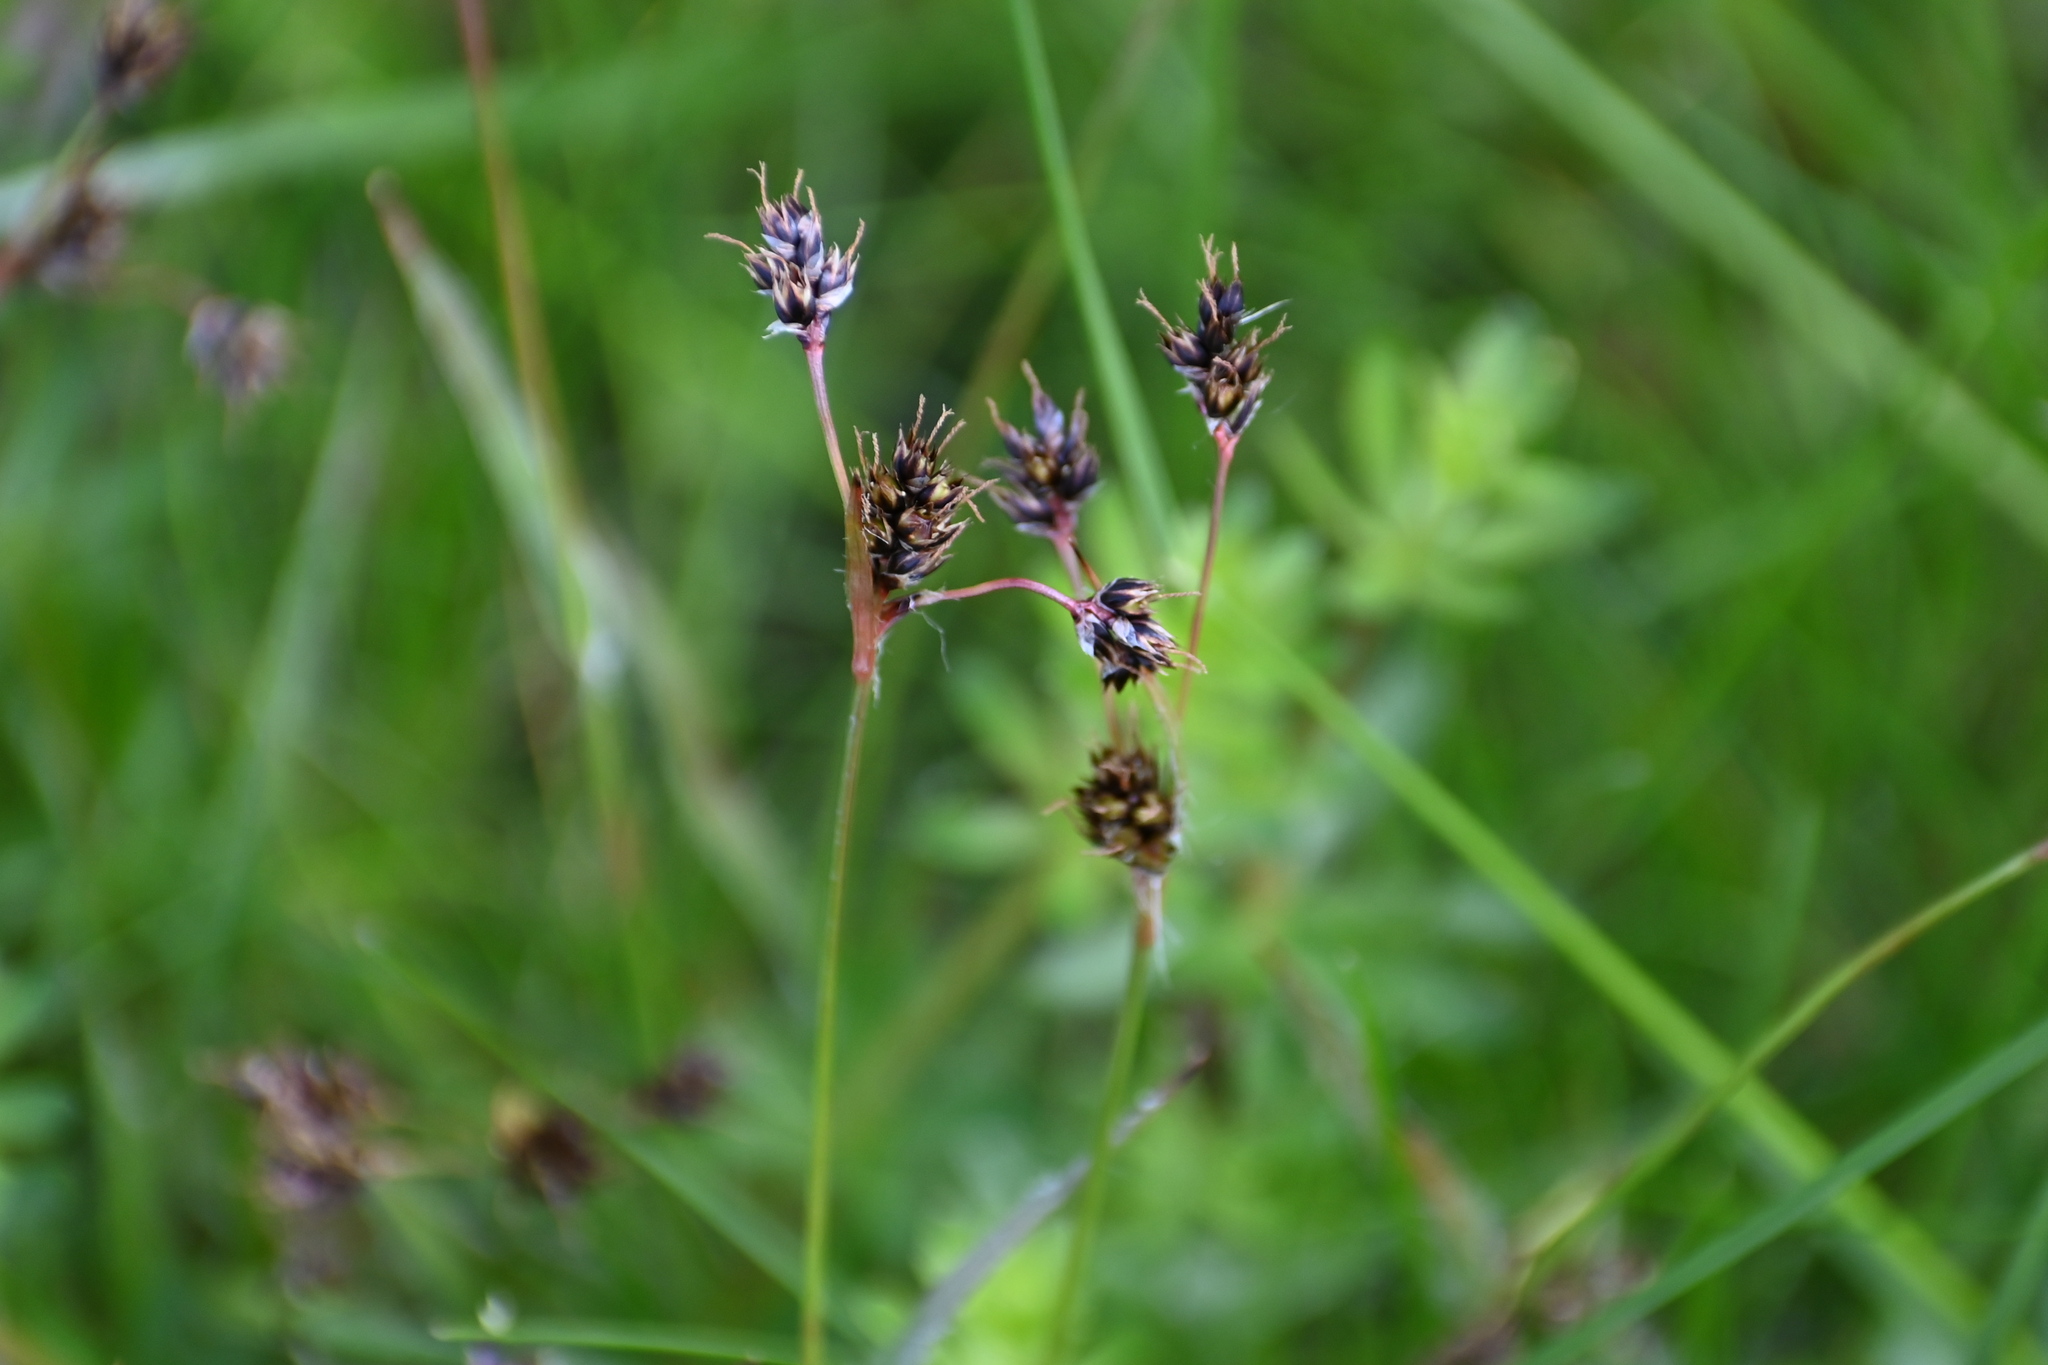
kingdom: Plantae
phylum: Tracheophyta
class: Liliopsida
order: Poales
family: Juncaceae
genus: Luzula
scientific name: Luzula campestris
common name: Field wood-rush
